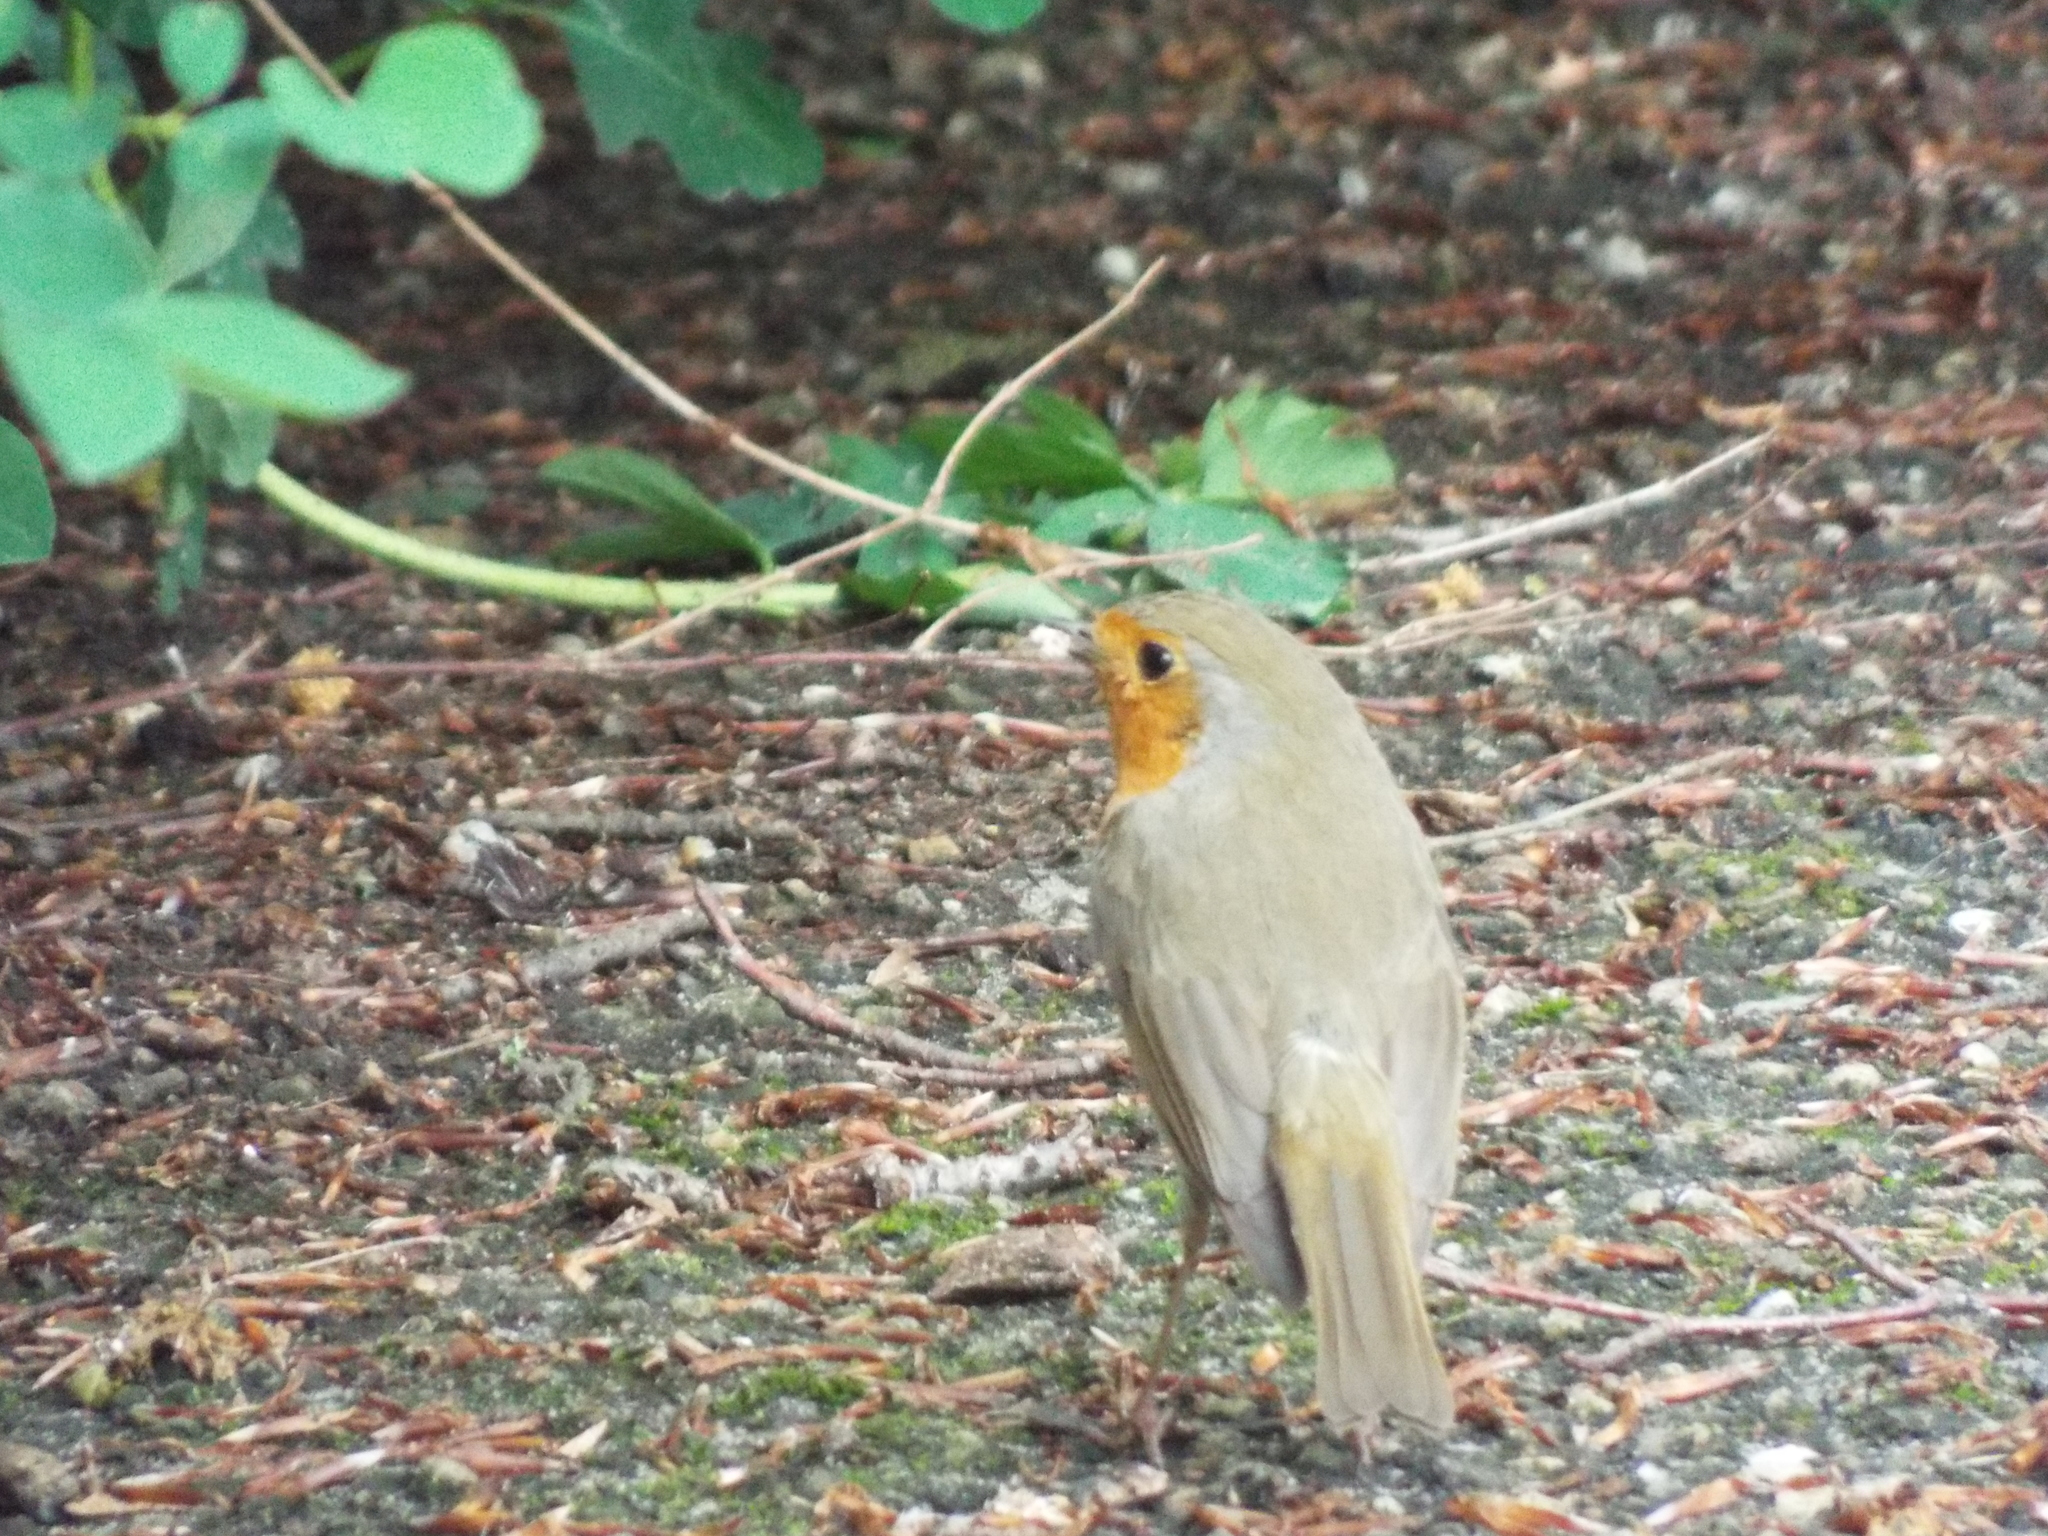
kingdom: Animalia
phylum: Chordata
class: Aves
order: Passeriformes
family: Muscicapidae
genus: Erithacus
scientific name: Erithacus rubecula
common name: European robin
